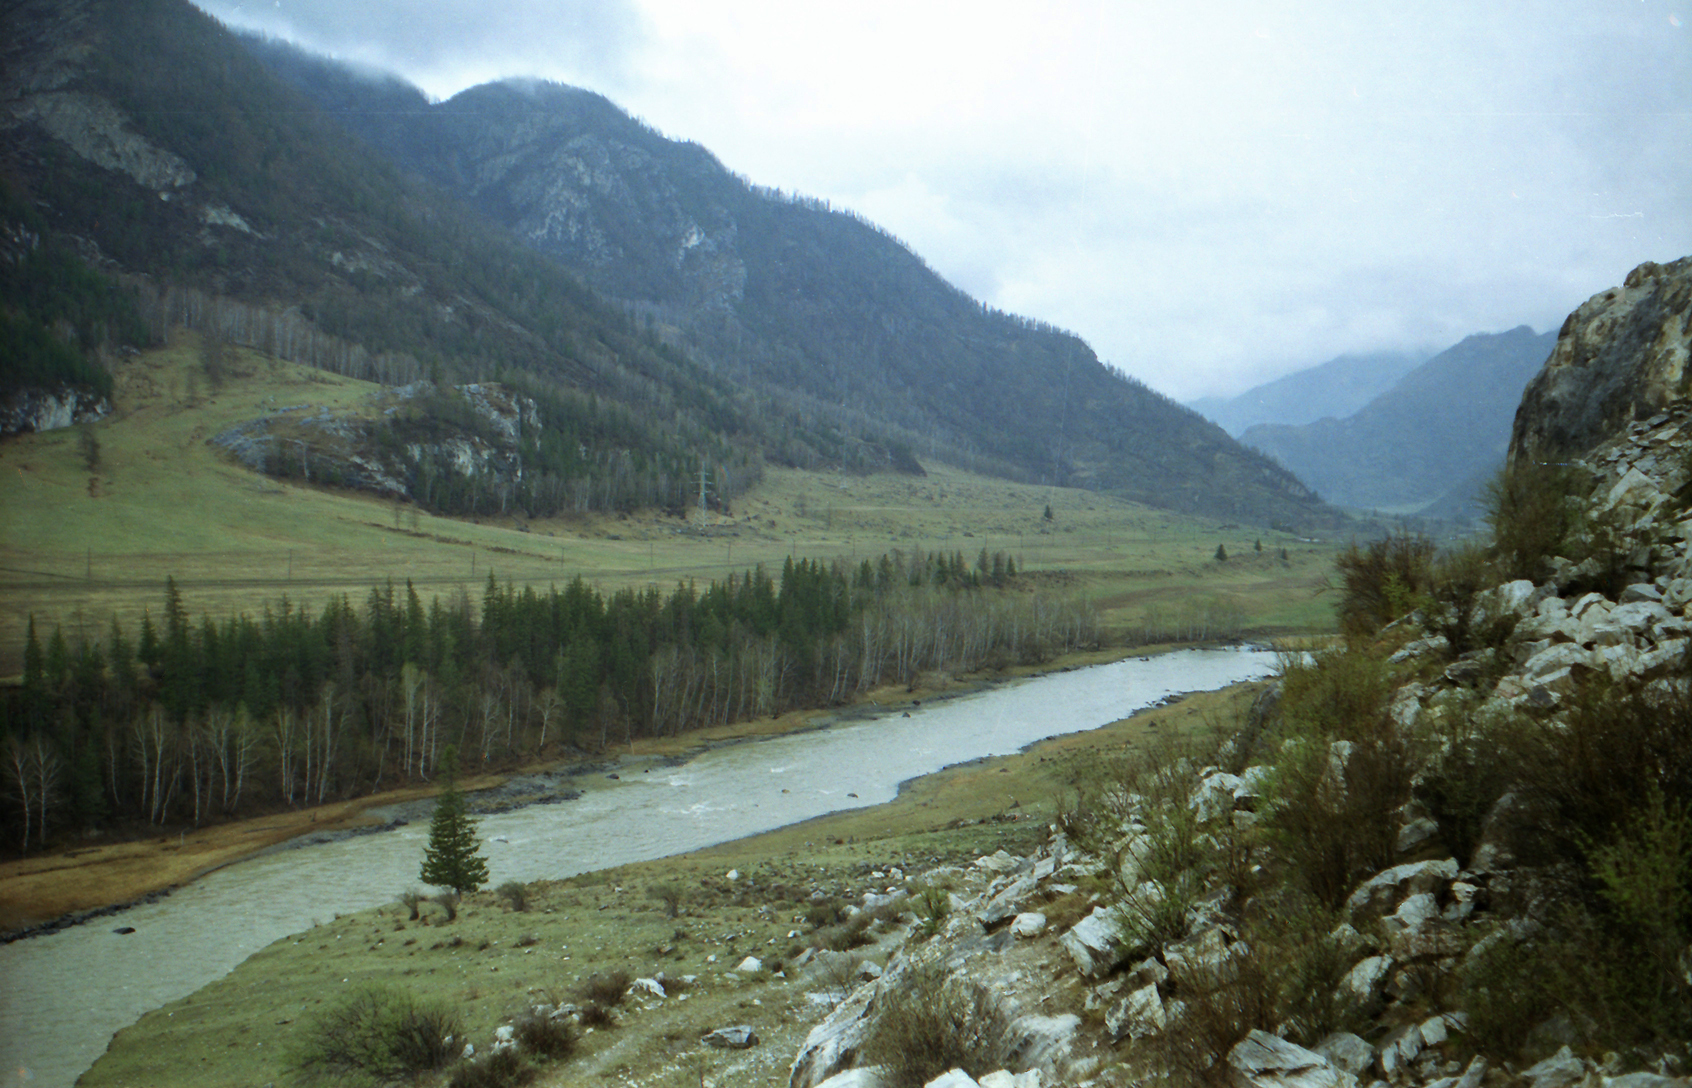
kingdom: Plantae
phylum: Tracheophyta
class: Pinopsida
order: Pinales
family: Pinaceae
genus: Picea
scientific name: Picea obovata
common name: Siberian spruce
